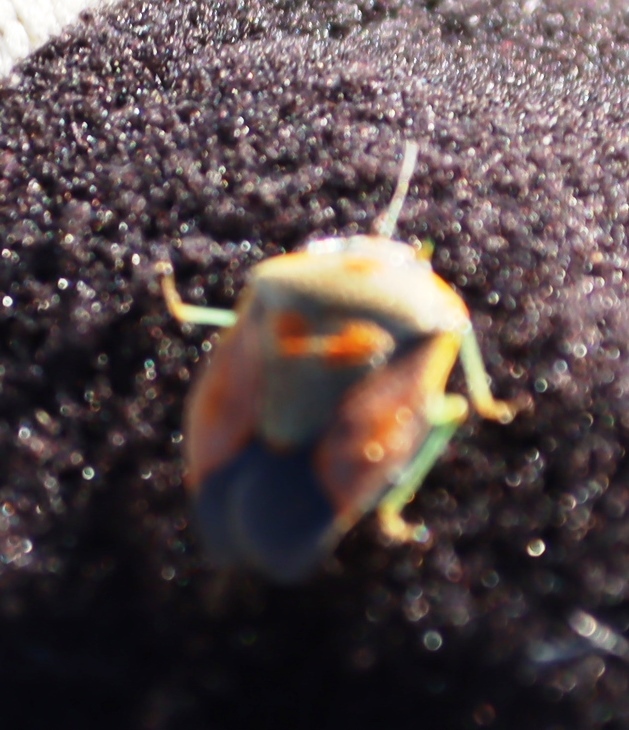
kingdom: Animalia
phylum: Arthropoda
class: Insecta
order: Hemiptera
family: Pentatomidae
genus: Antestiopsis
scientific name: Antestiopsis thunbergii
